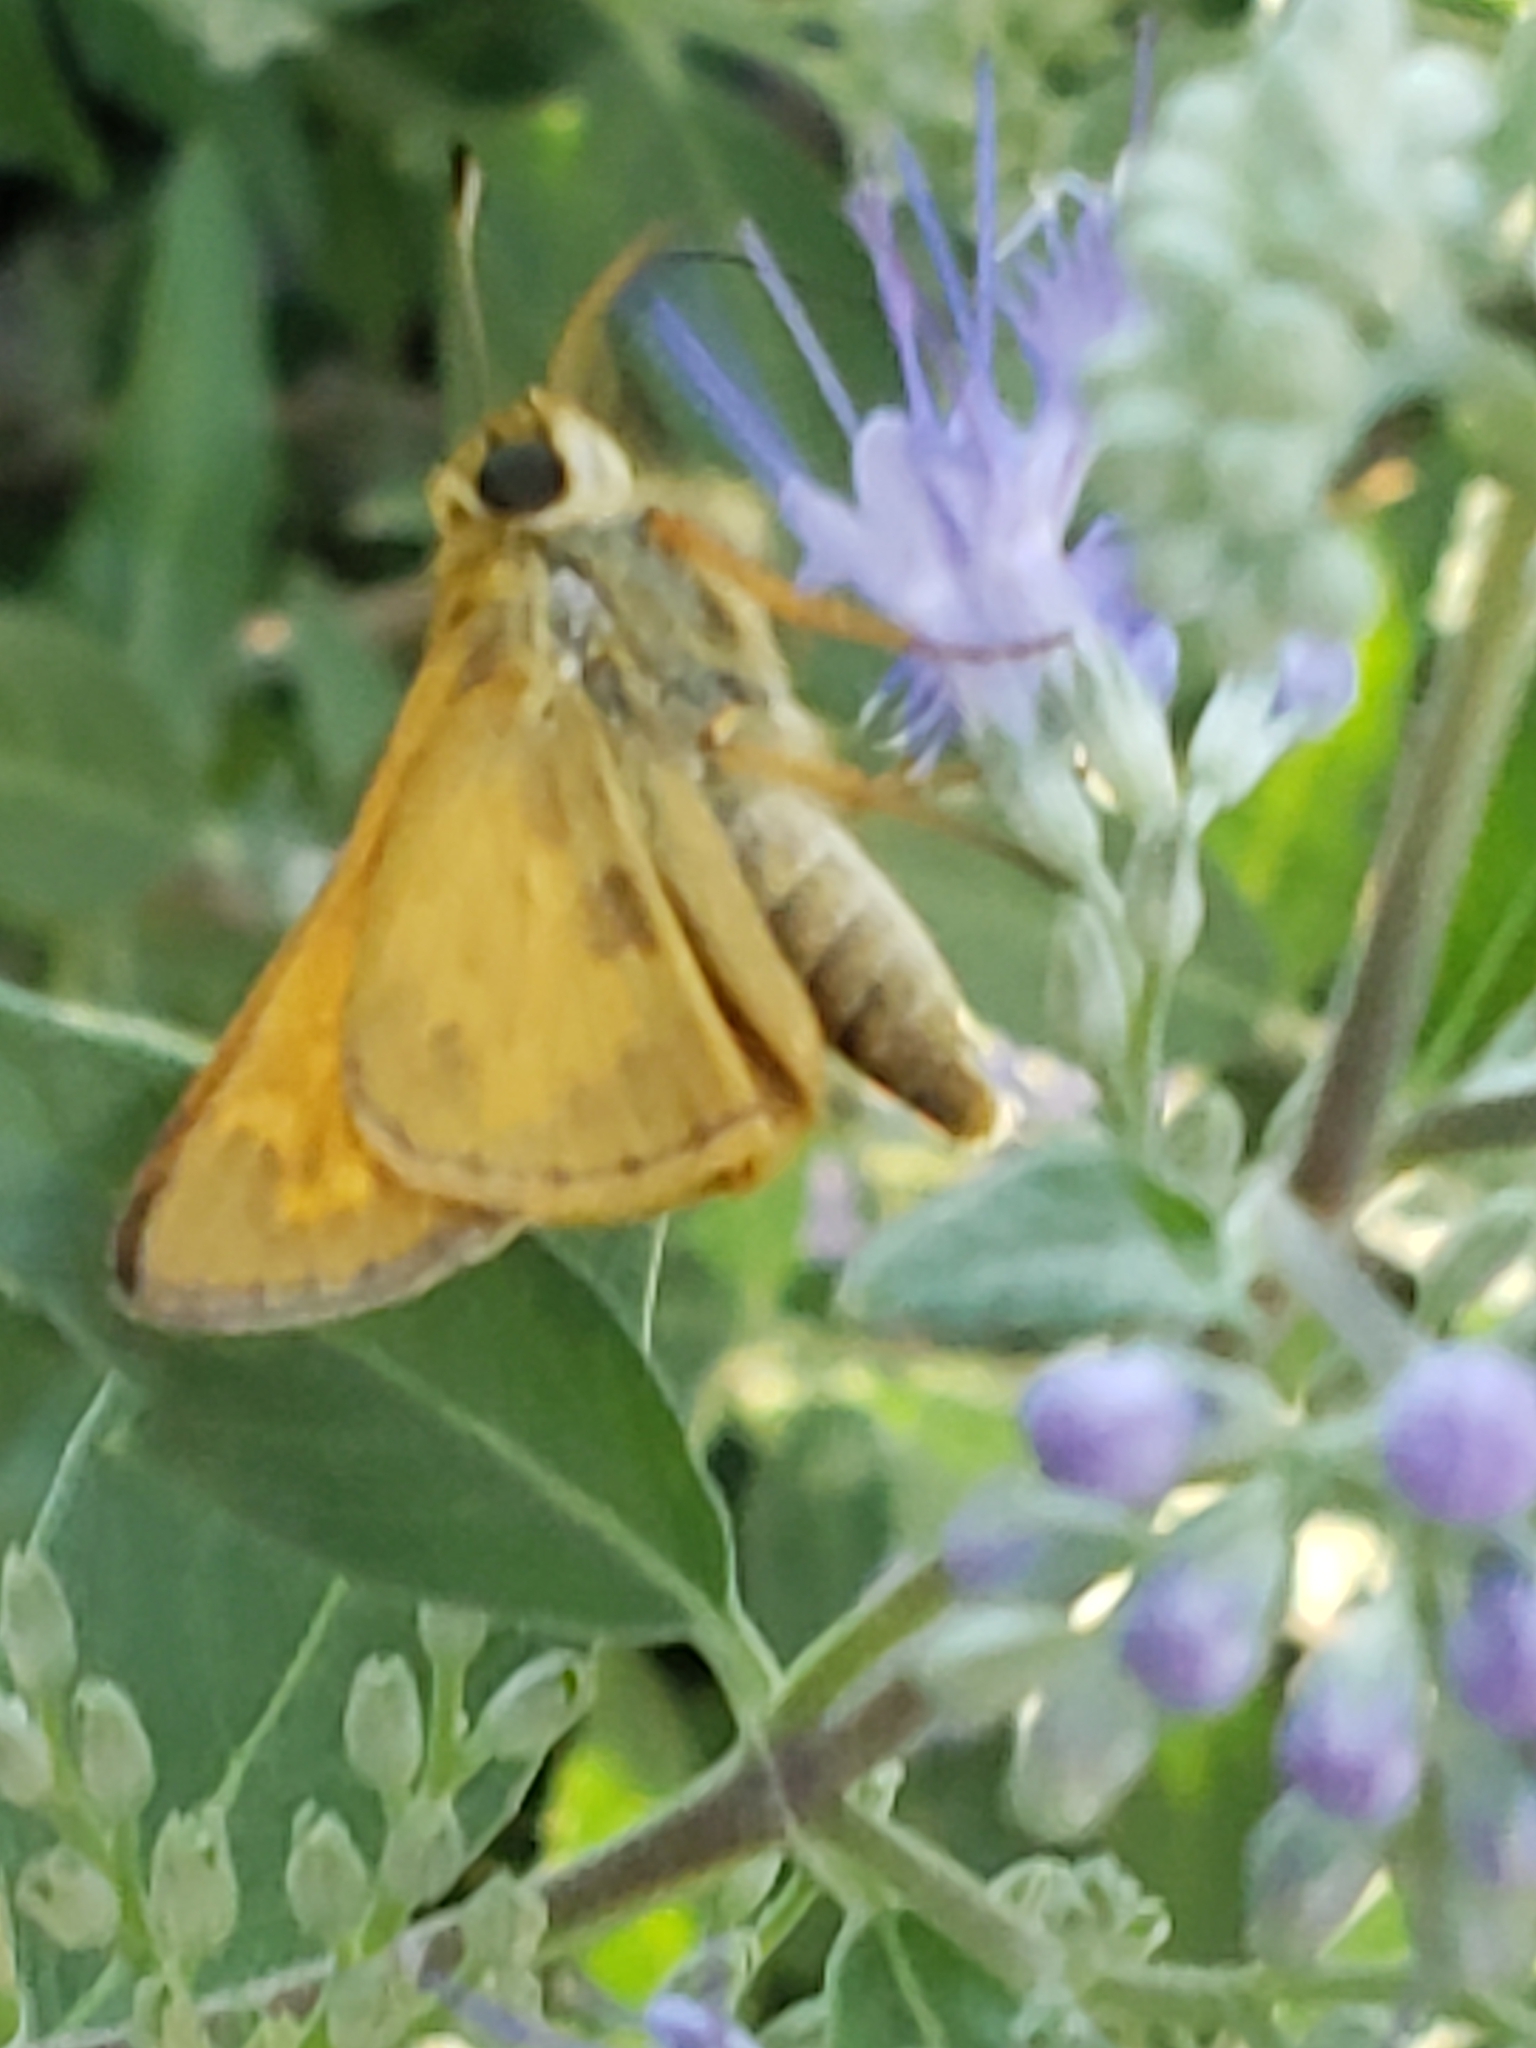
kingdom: Animalia
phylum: Arthropoda
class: Insecta
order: Lepidoptera
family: Hesperiidae
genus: Atalopedes
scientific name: Atalopedes
